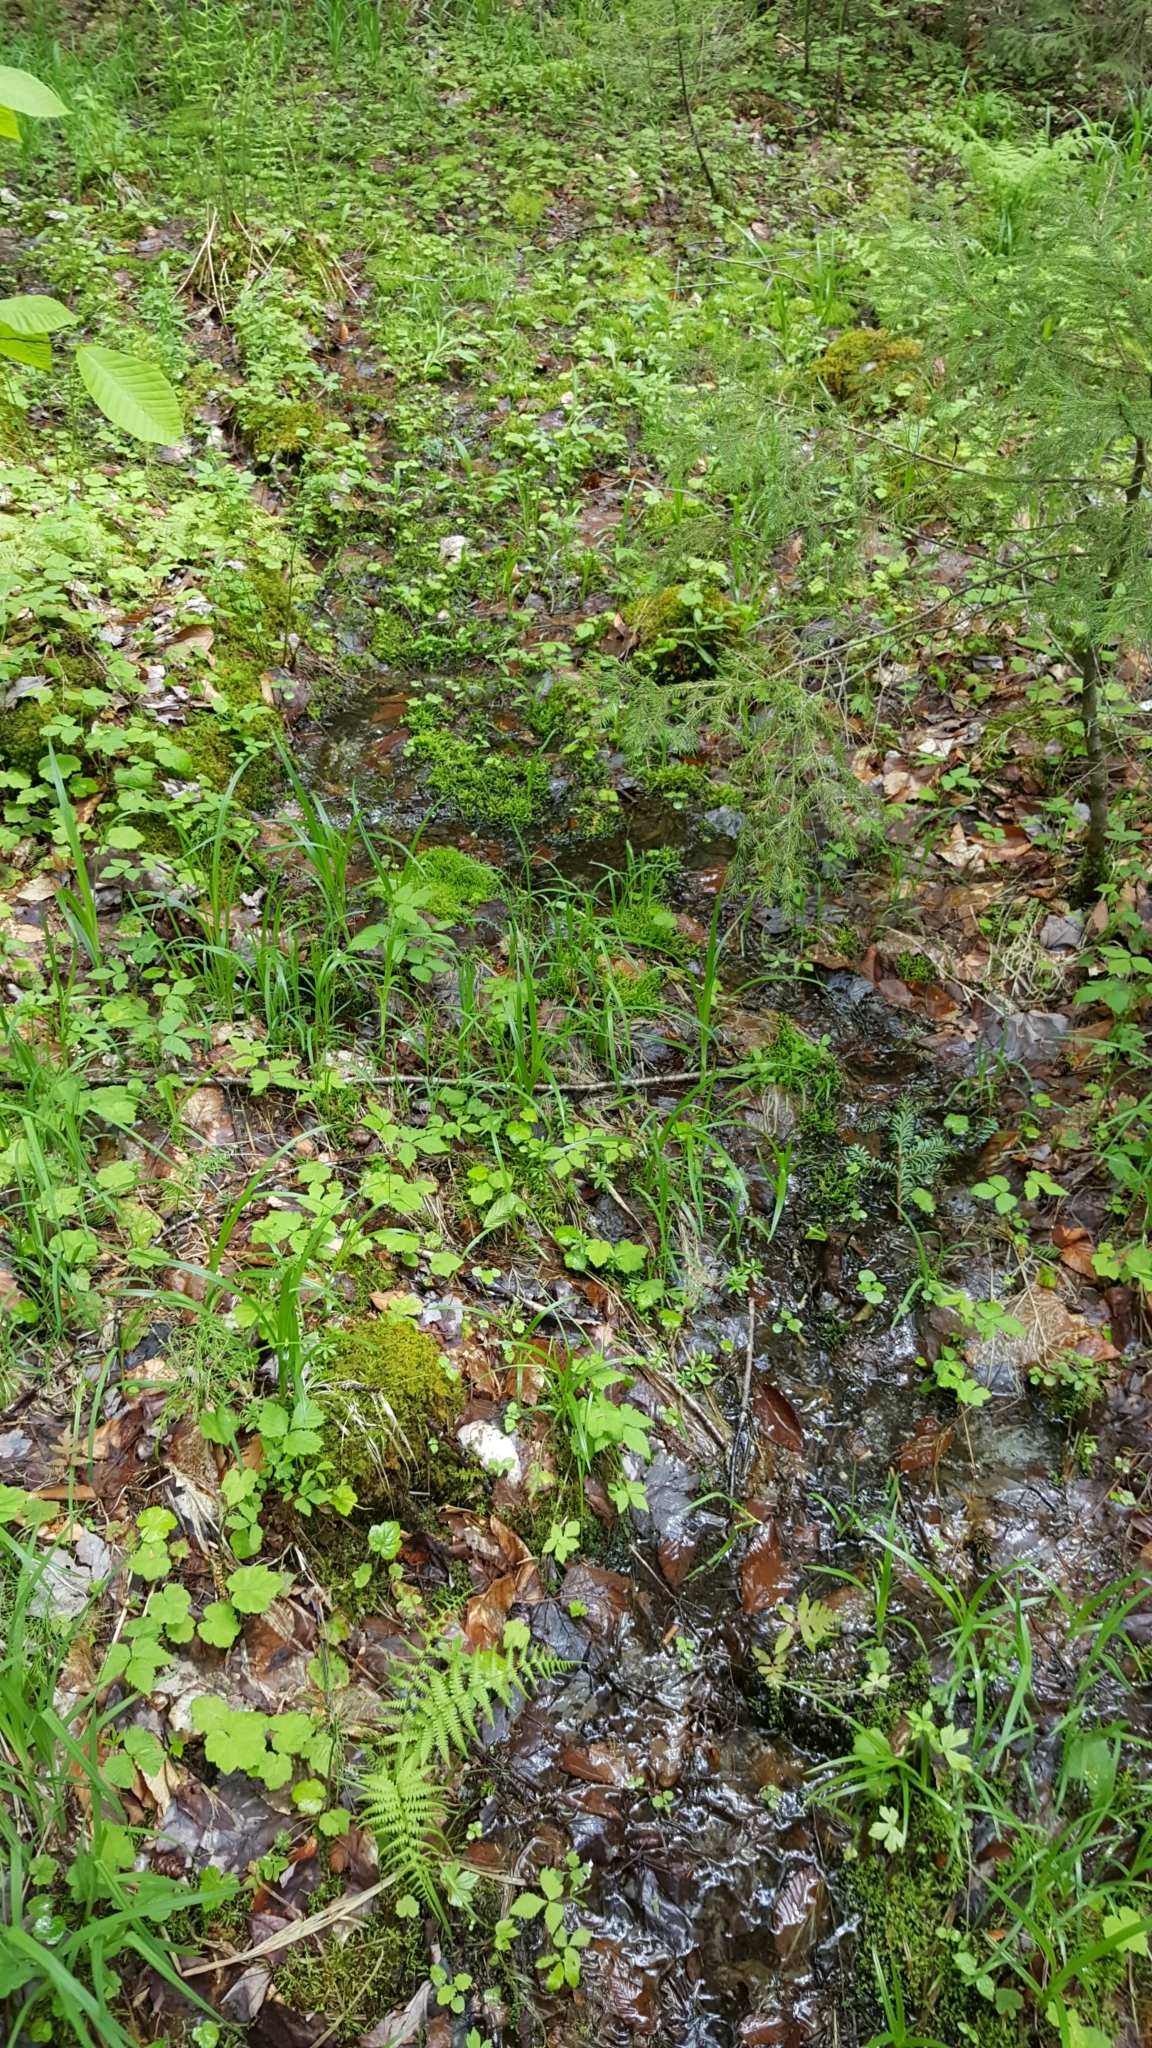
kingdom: Plantae
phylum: Tracheophyta
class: Magnoliopsida
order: Rosales
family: Rosaceae
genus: Rubus
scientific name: Rubus pubescens
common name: Dwarf raspberry
